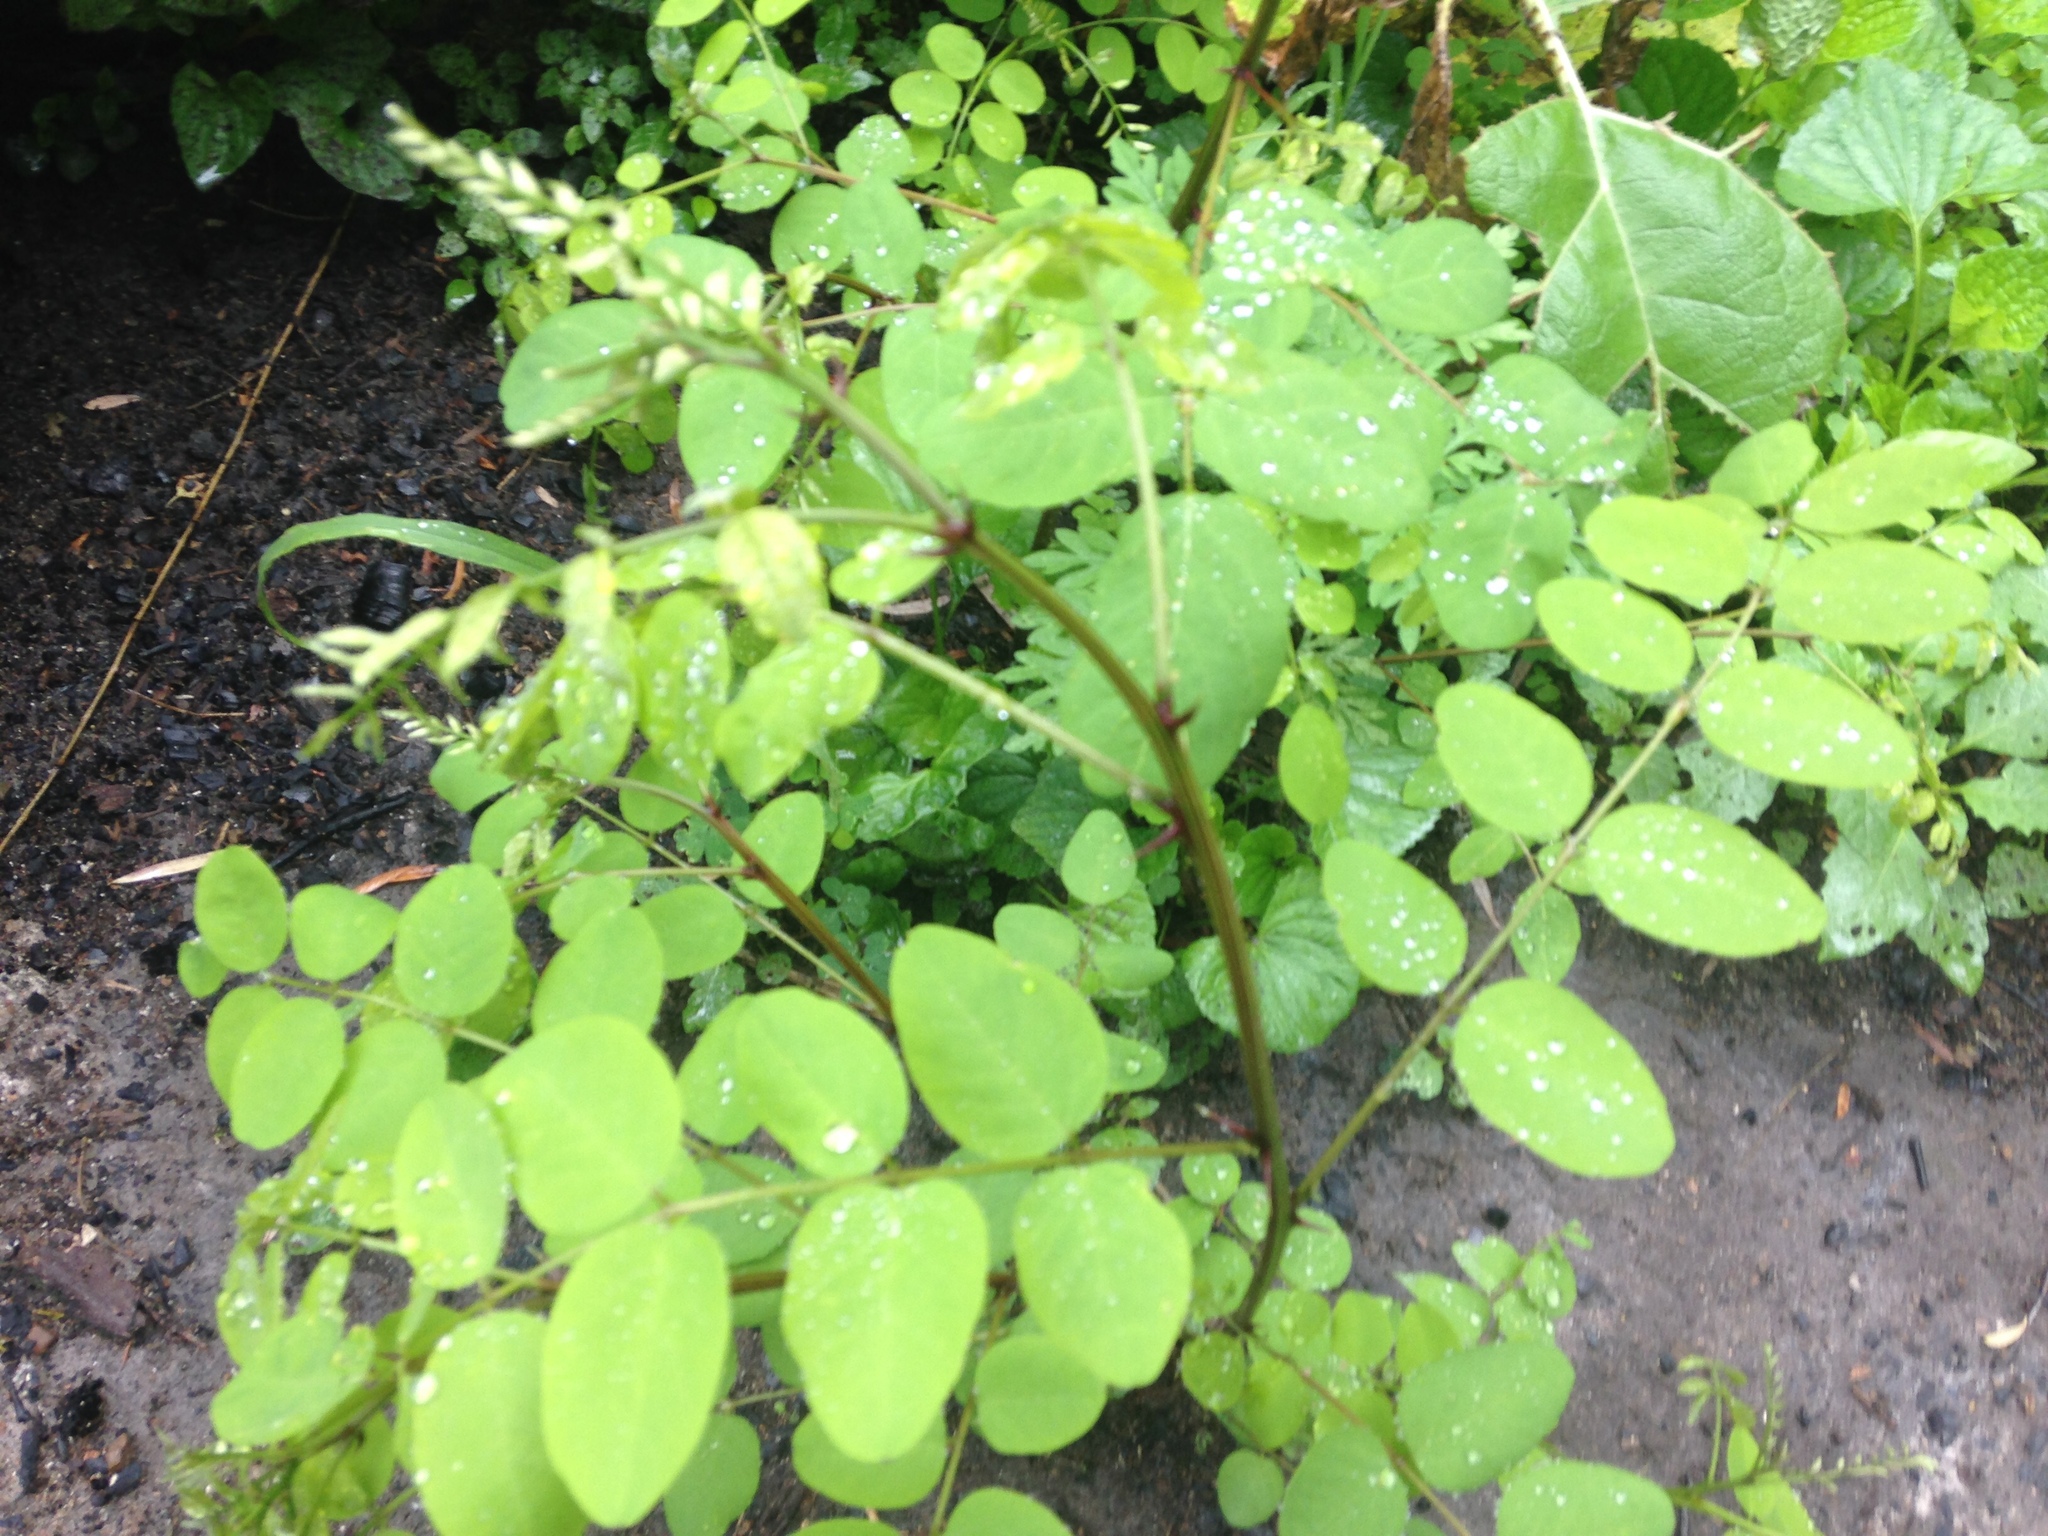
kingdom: Plantae
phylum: Tracheophyta
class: Magnoliopsida
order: Fabales
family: Fabaceae
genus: Robinia
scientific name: Robinia pseudoacacia
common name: Black locust
